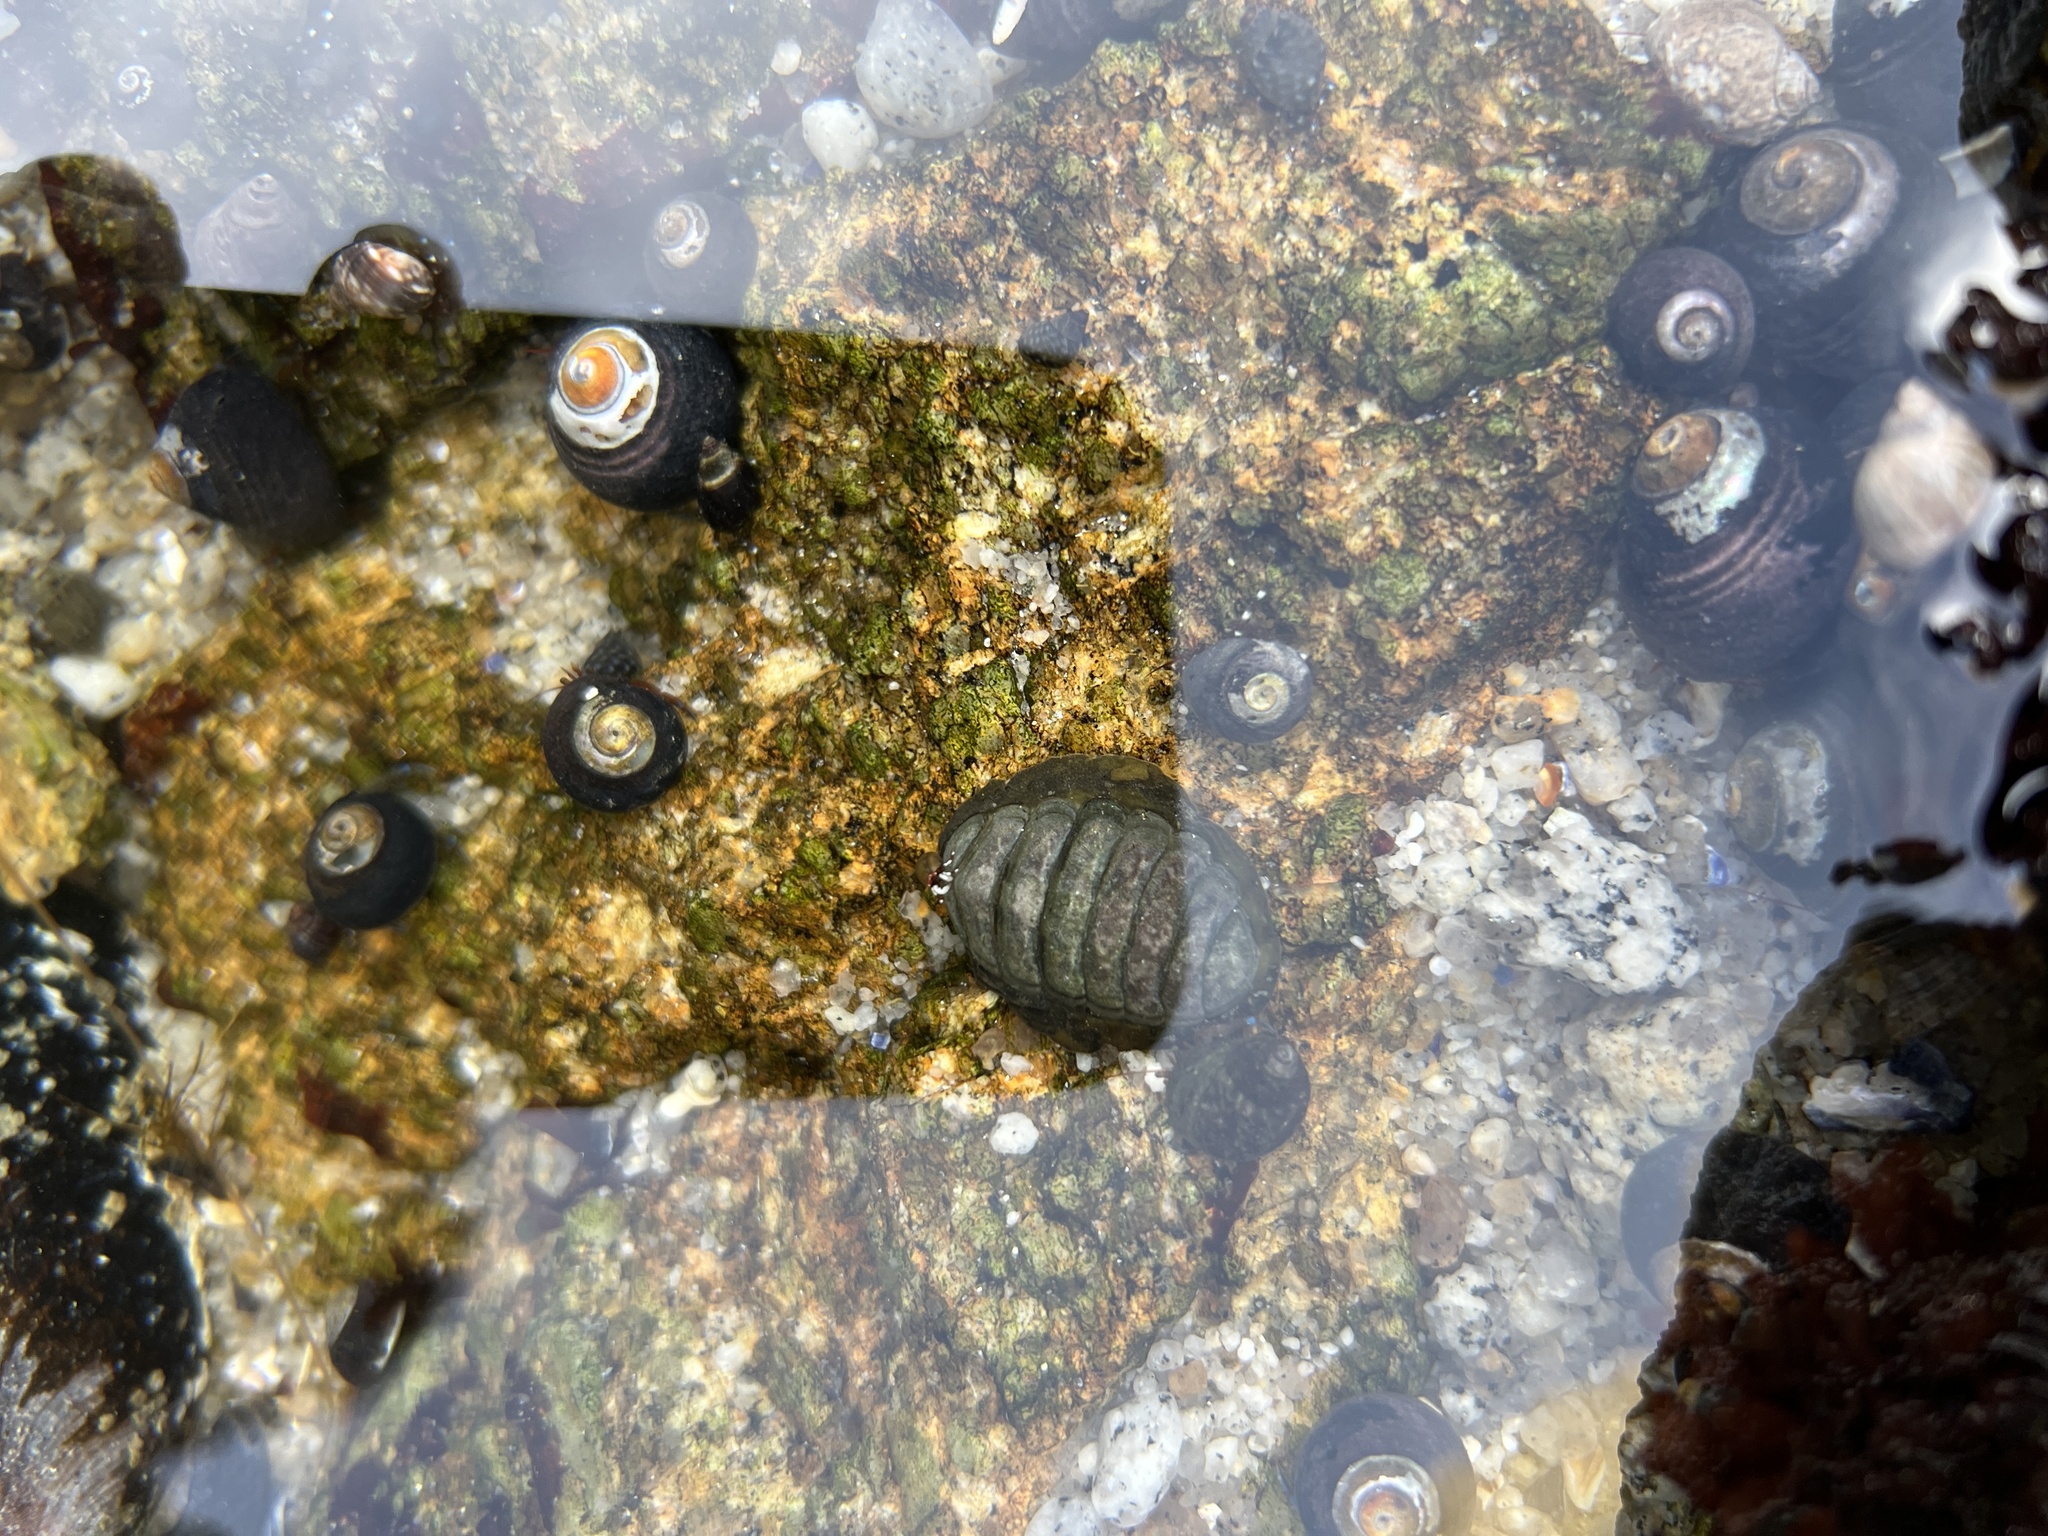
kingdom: Animalia
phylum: Mollusca
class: Polyplacophora
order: Chitonida
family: Tonicellidae
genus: Cyanoplax
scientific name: Cyanoplax hartwegii
